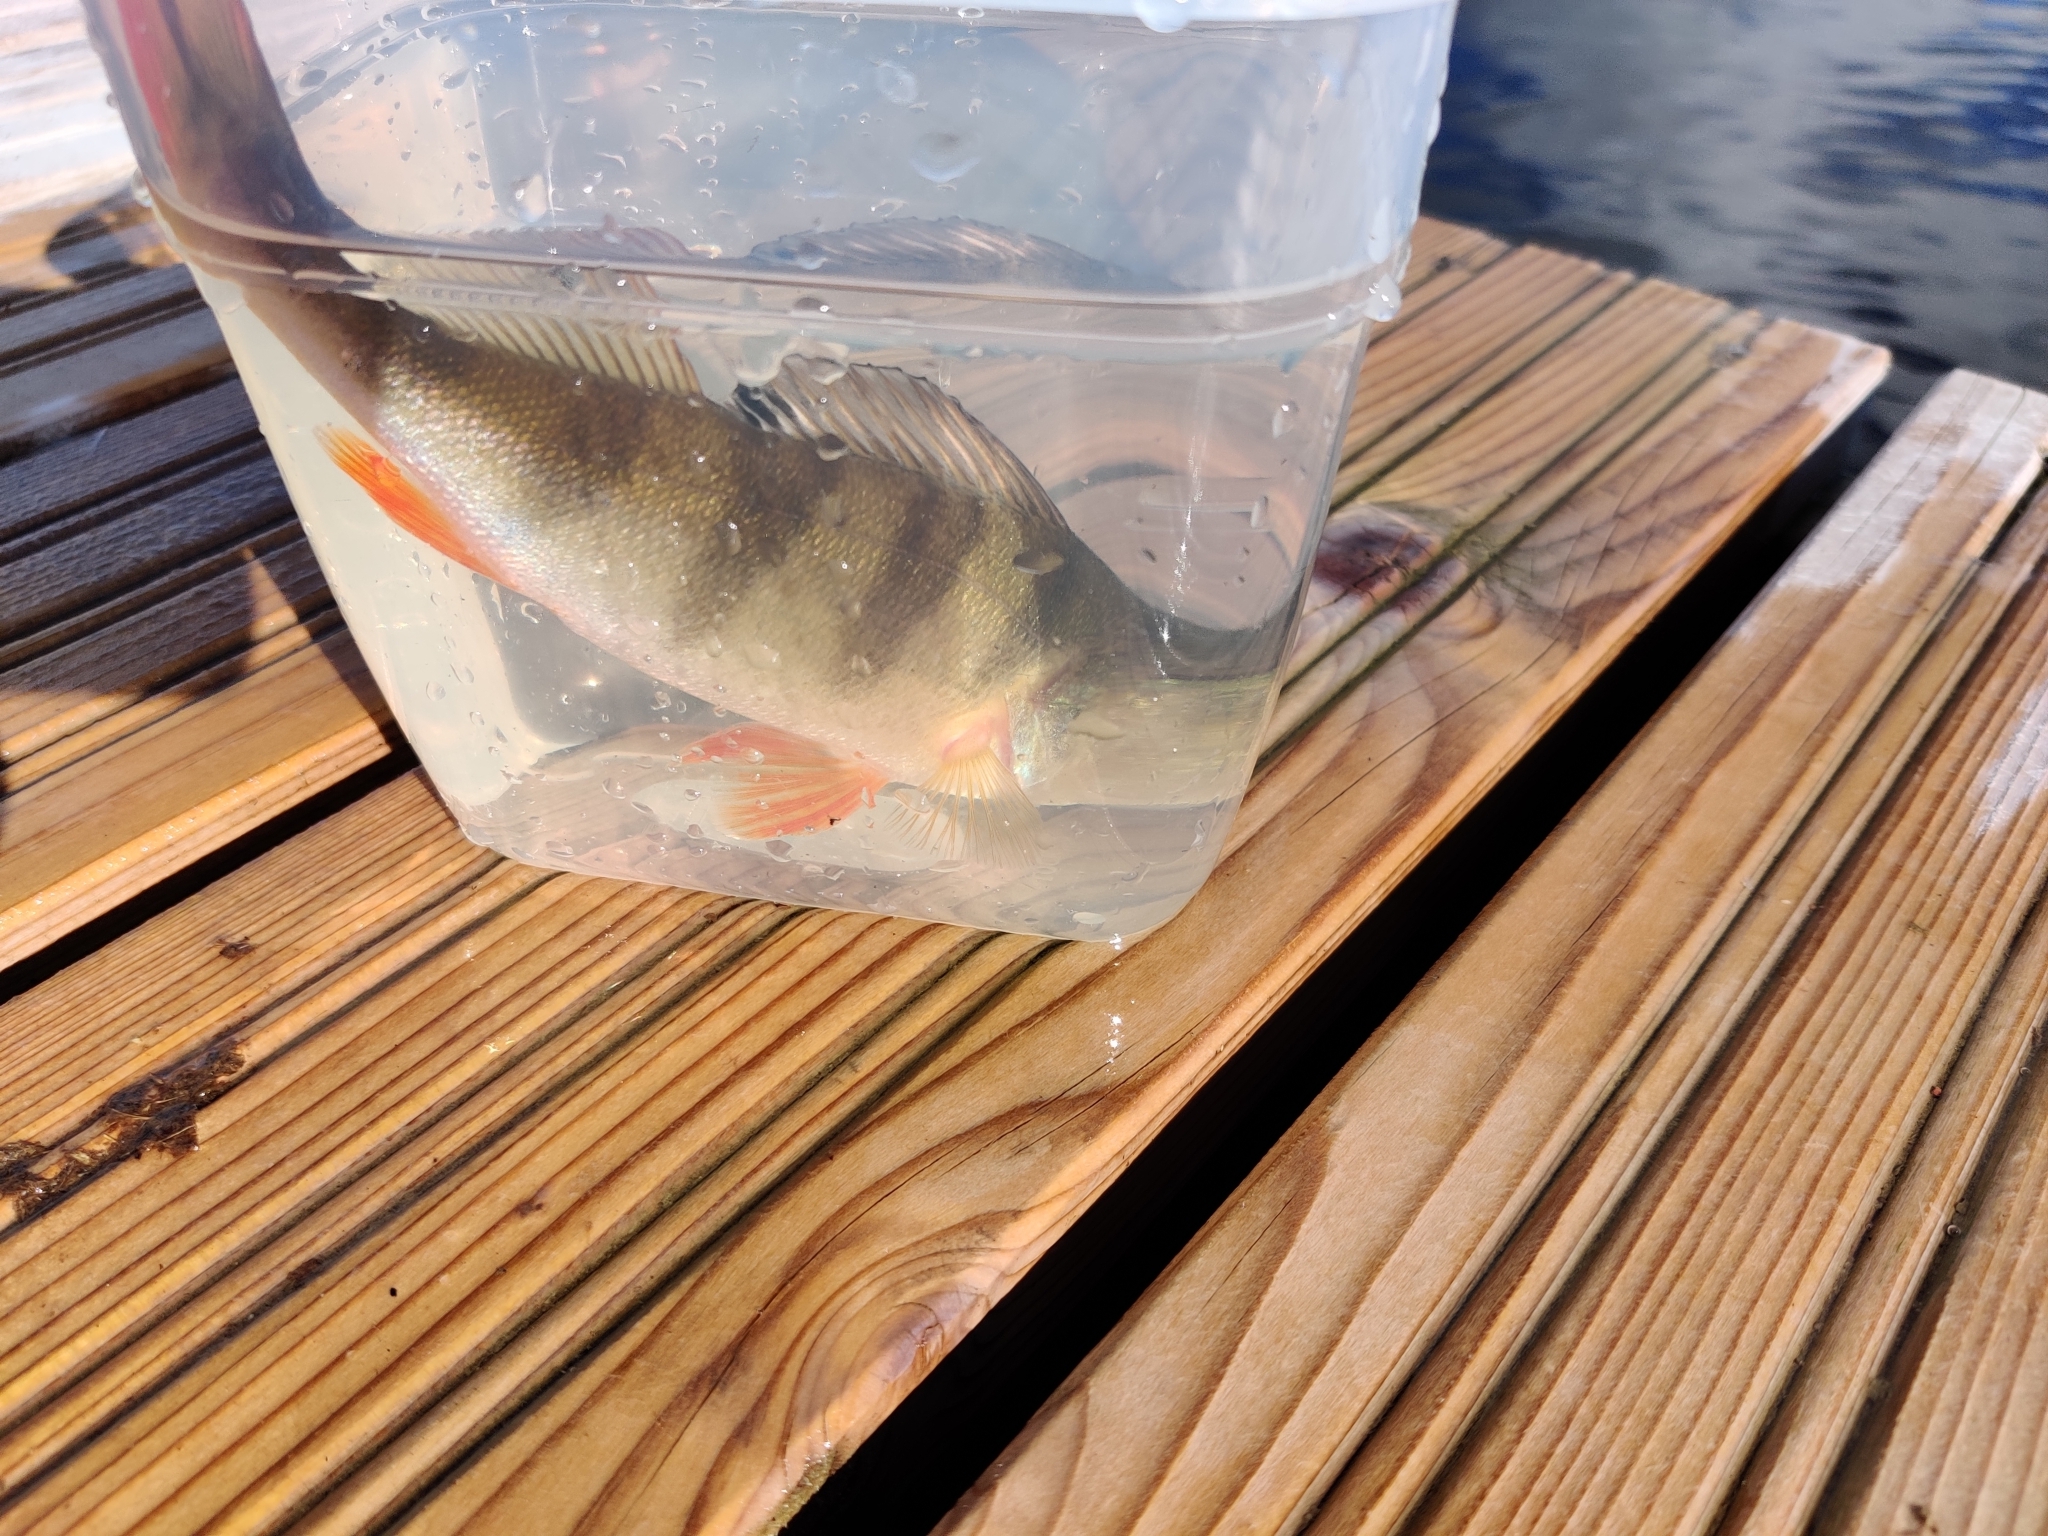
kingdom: Animalia
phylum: Chordata
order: Perciformes
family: Percidae
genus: Perca
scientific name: Perca fluviatilis
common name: Perch
